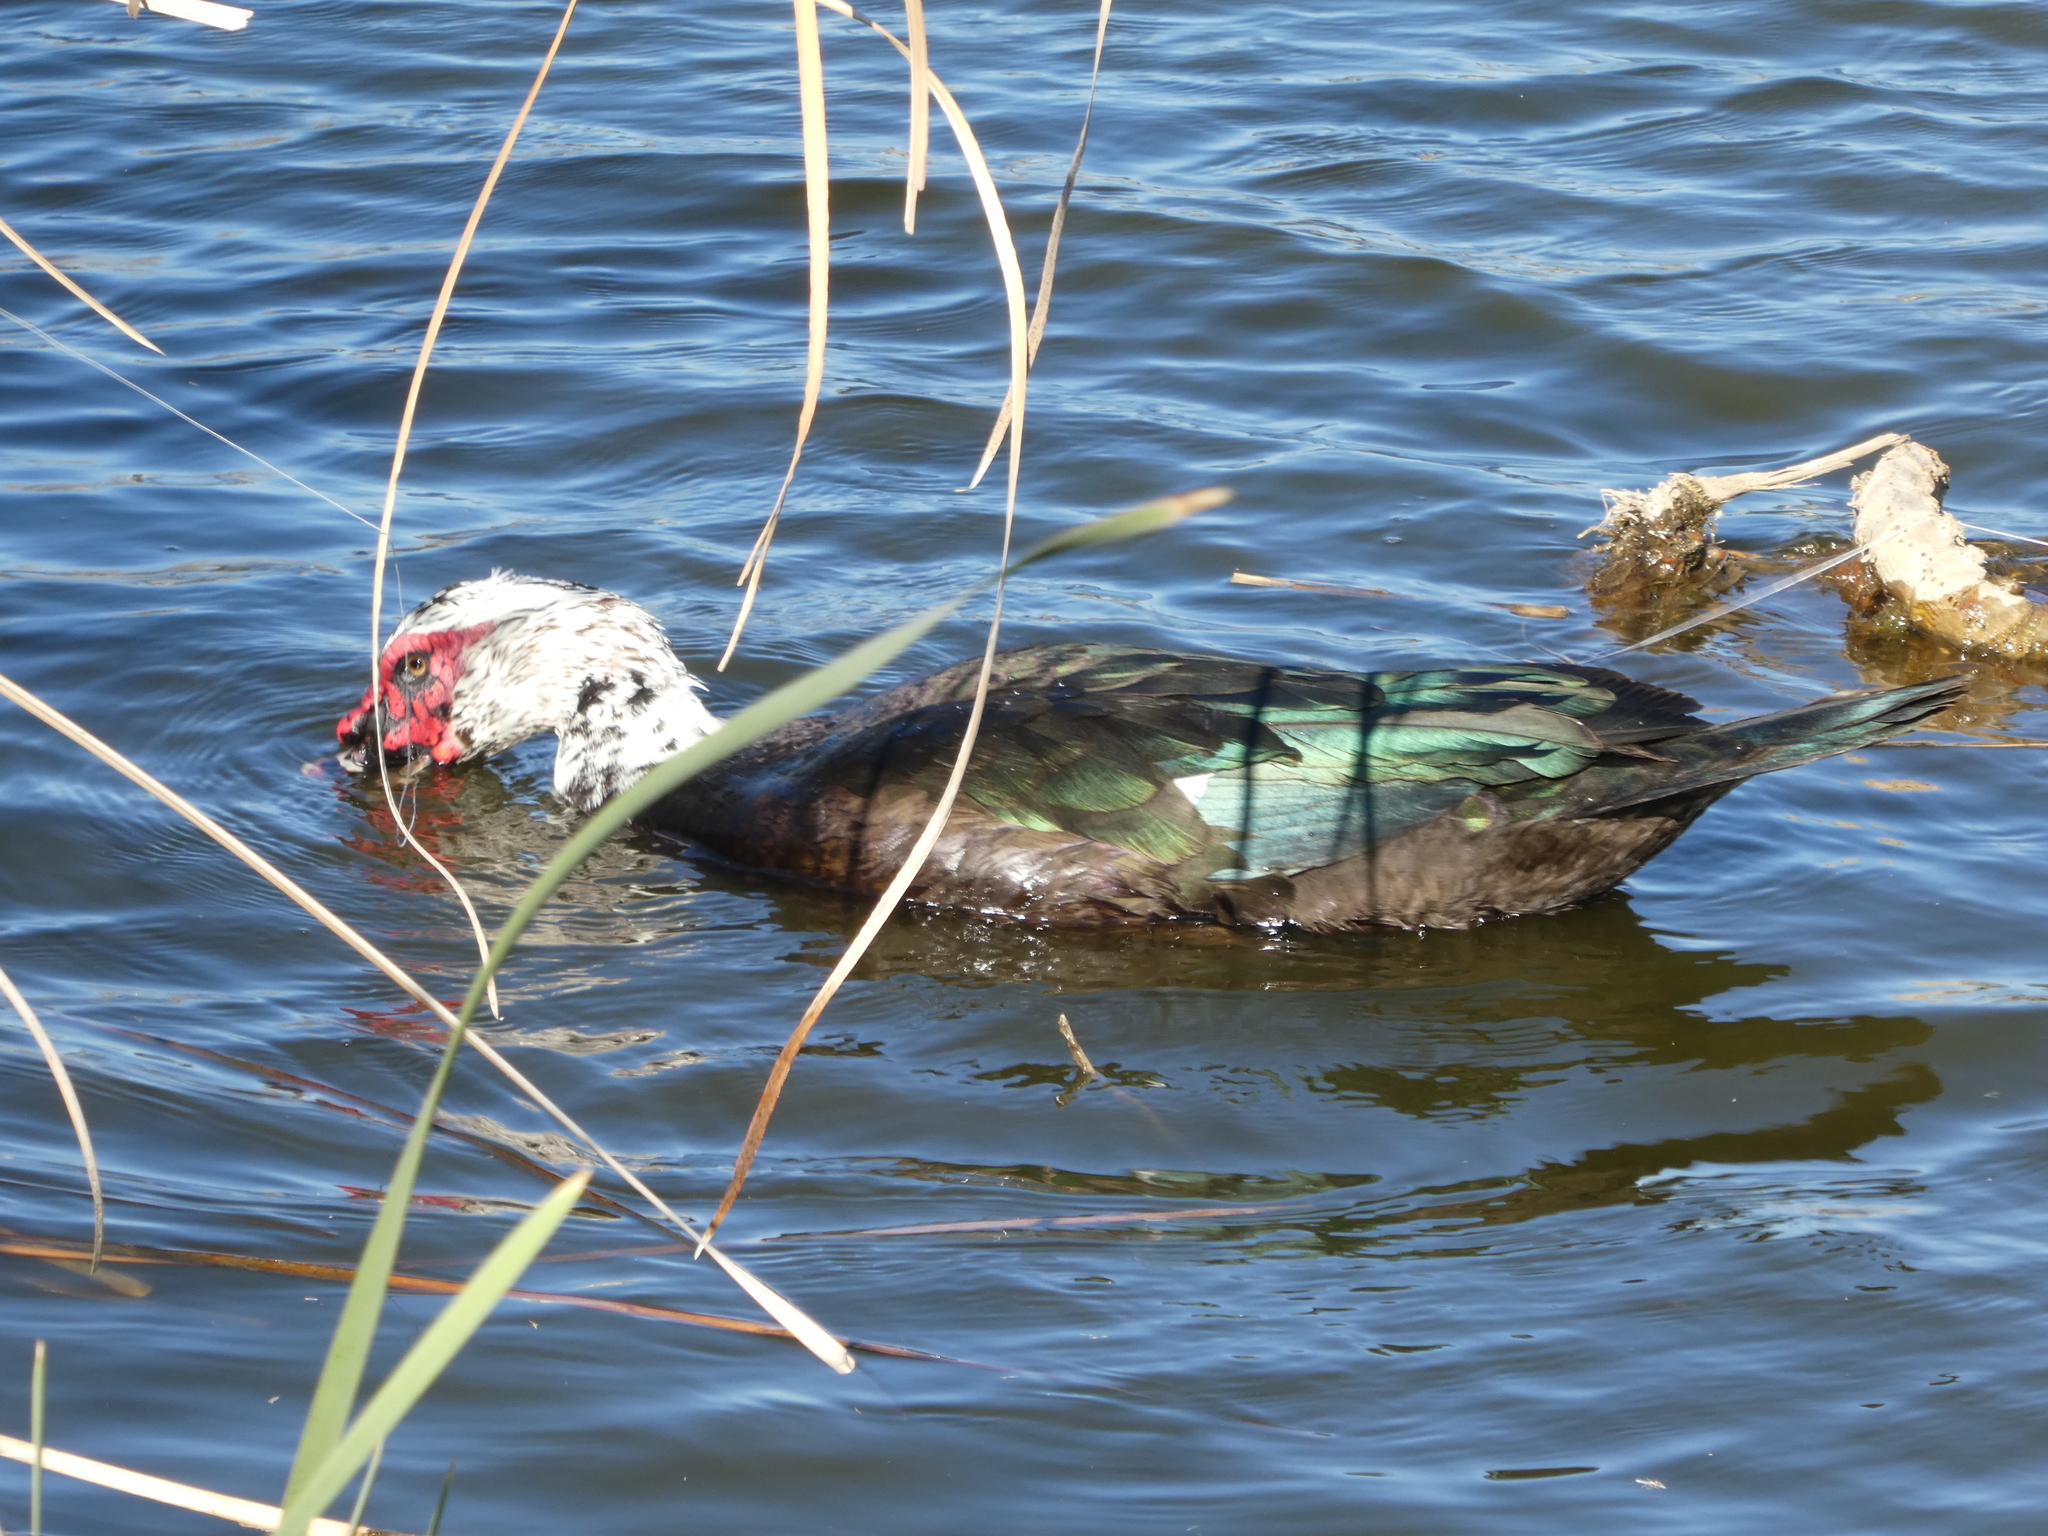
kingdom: Animalia
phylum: Chordata
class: Aves
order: Anseriformes
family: Anatidae
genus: Cairina
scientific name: Cairina moschata
